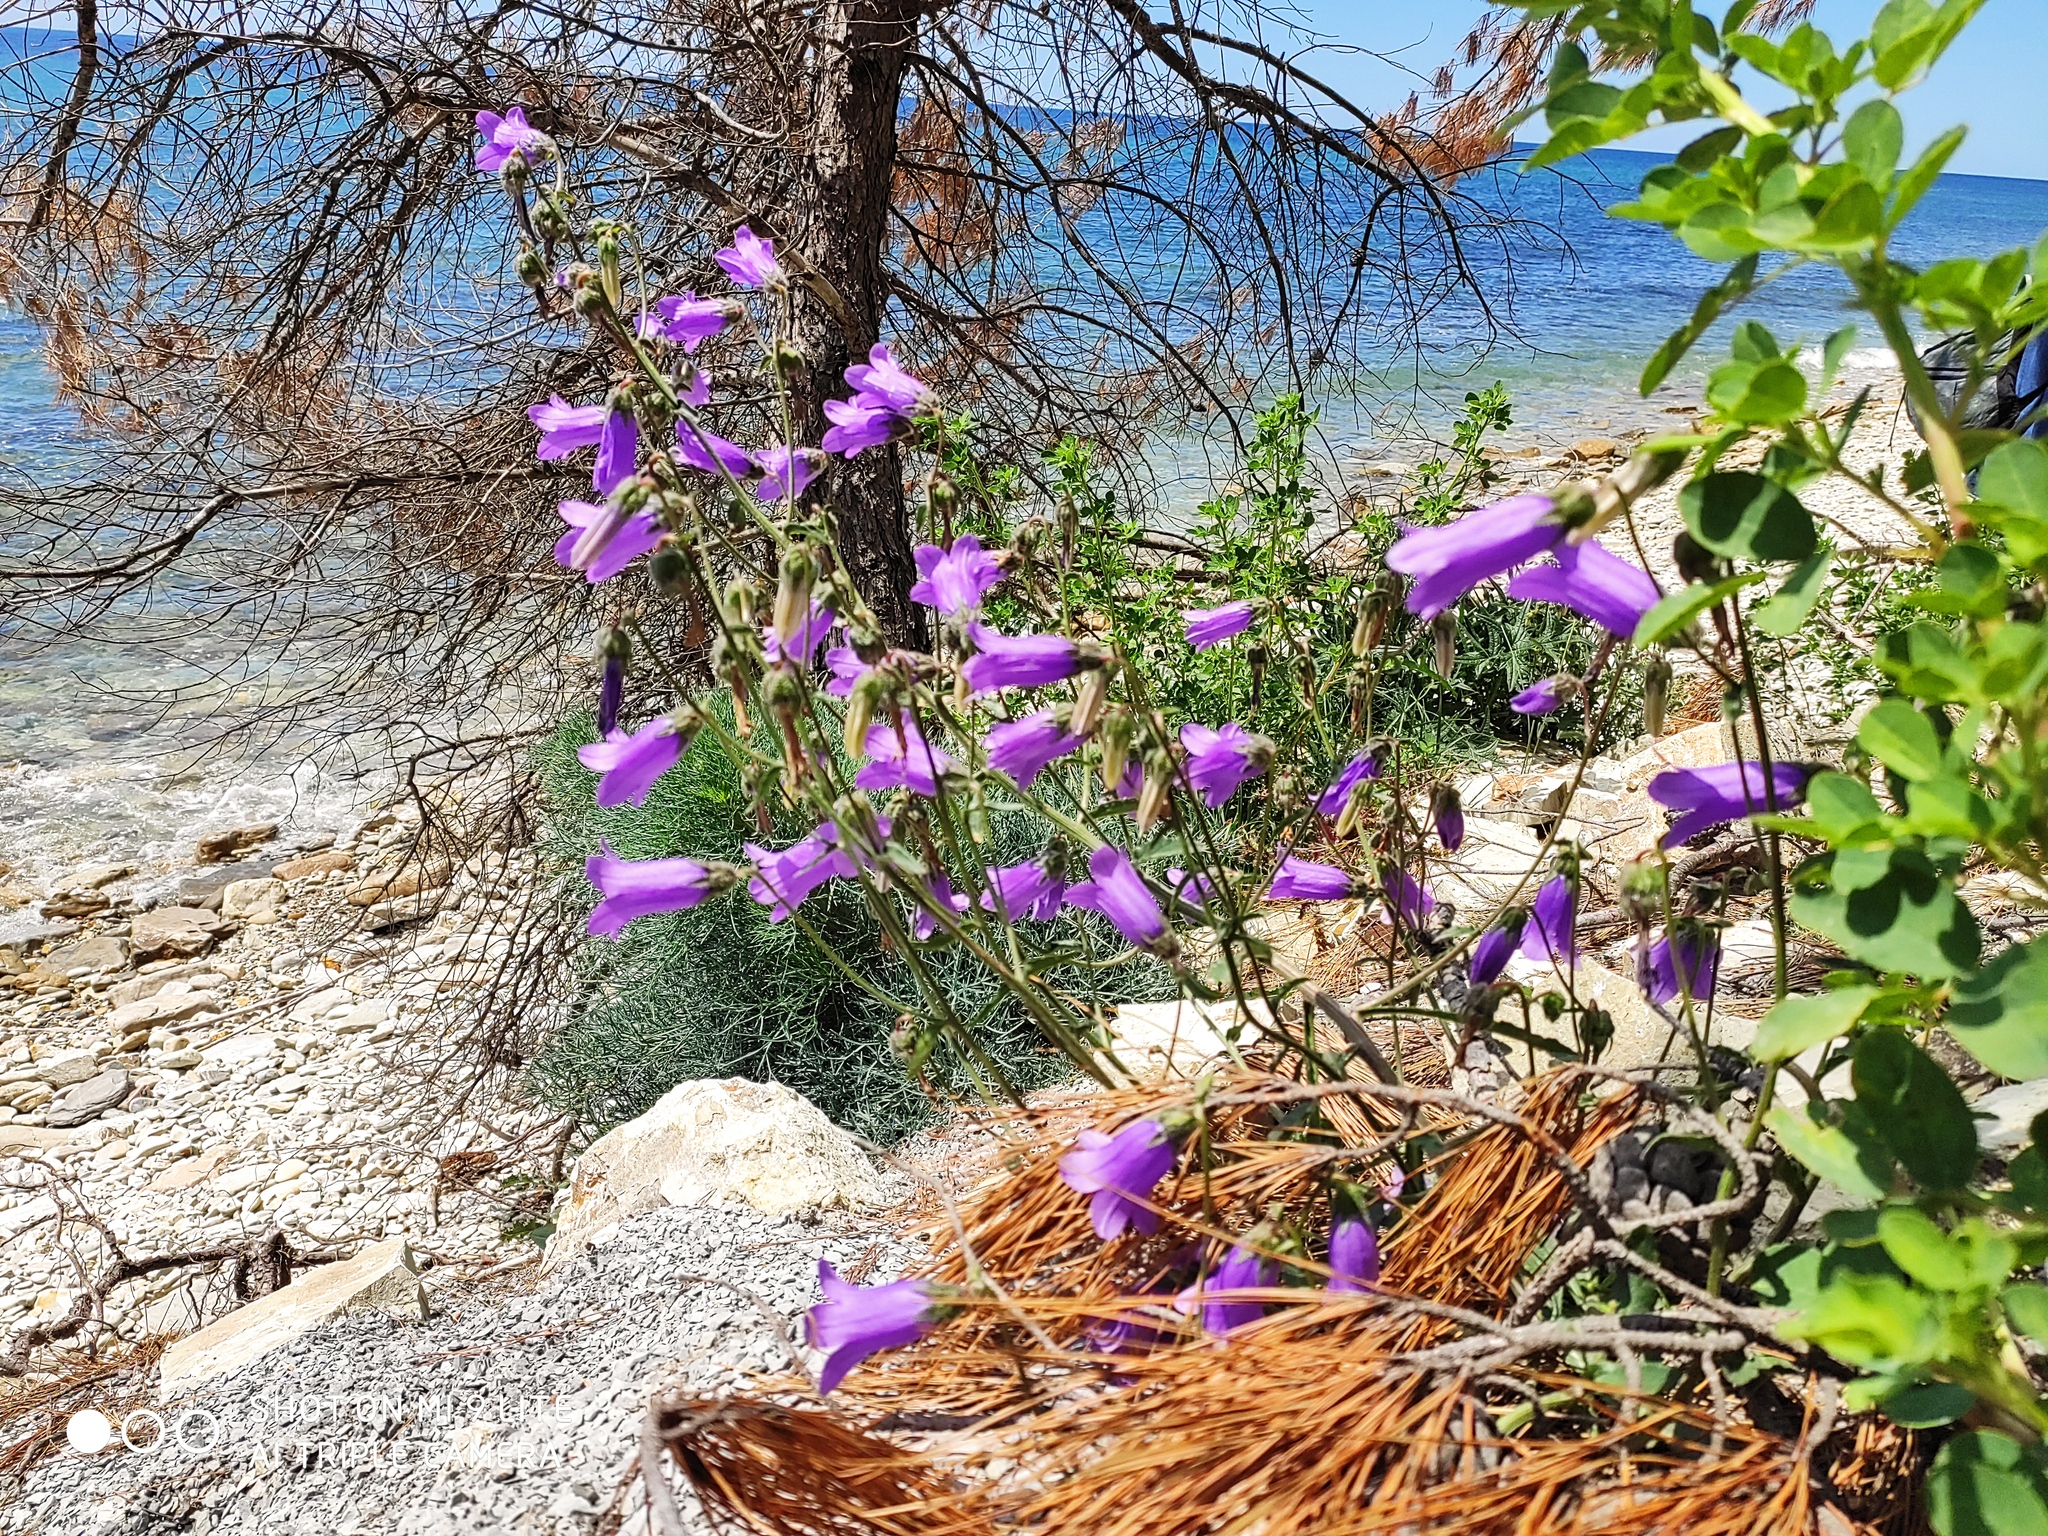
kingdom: Plantae
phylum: Tracheophyta
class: Magnoliopsida
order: Asterales
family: Campanulaceae
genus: Campanula
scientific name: Campanula komarovii
